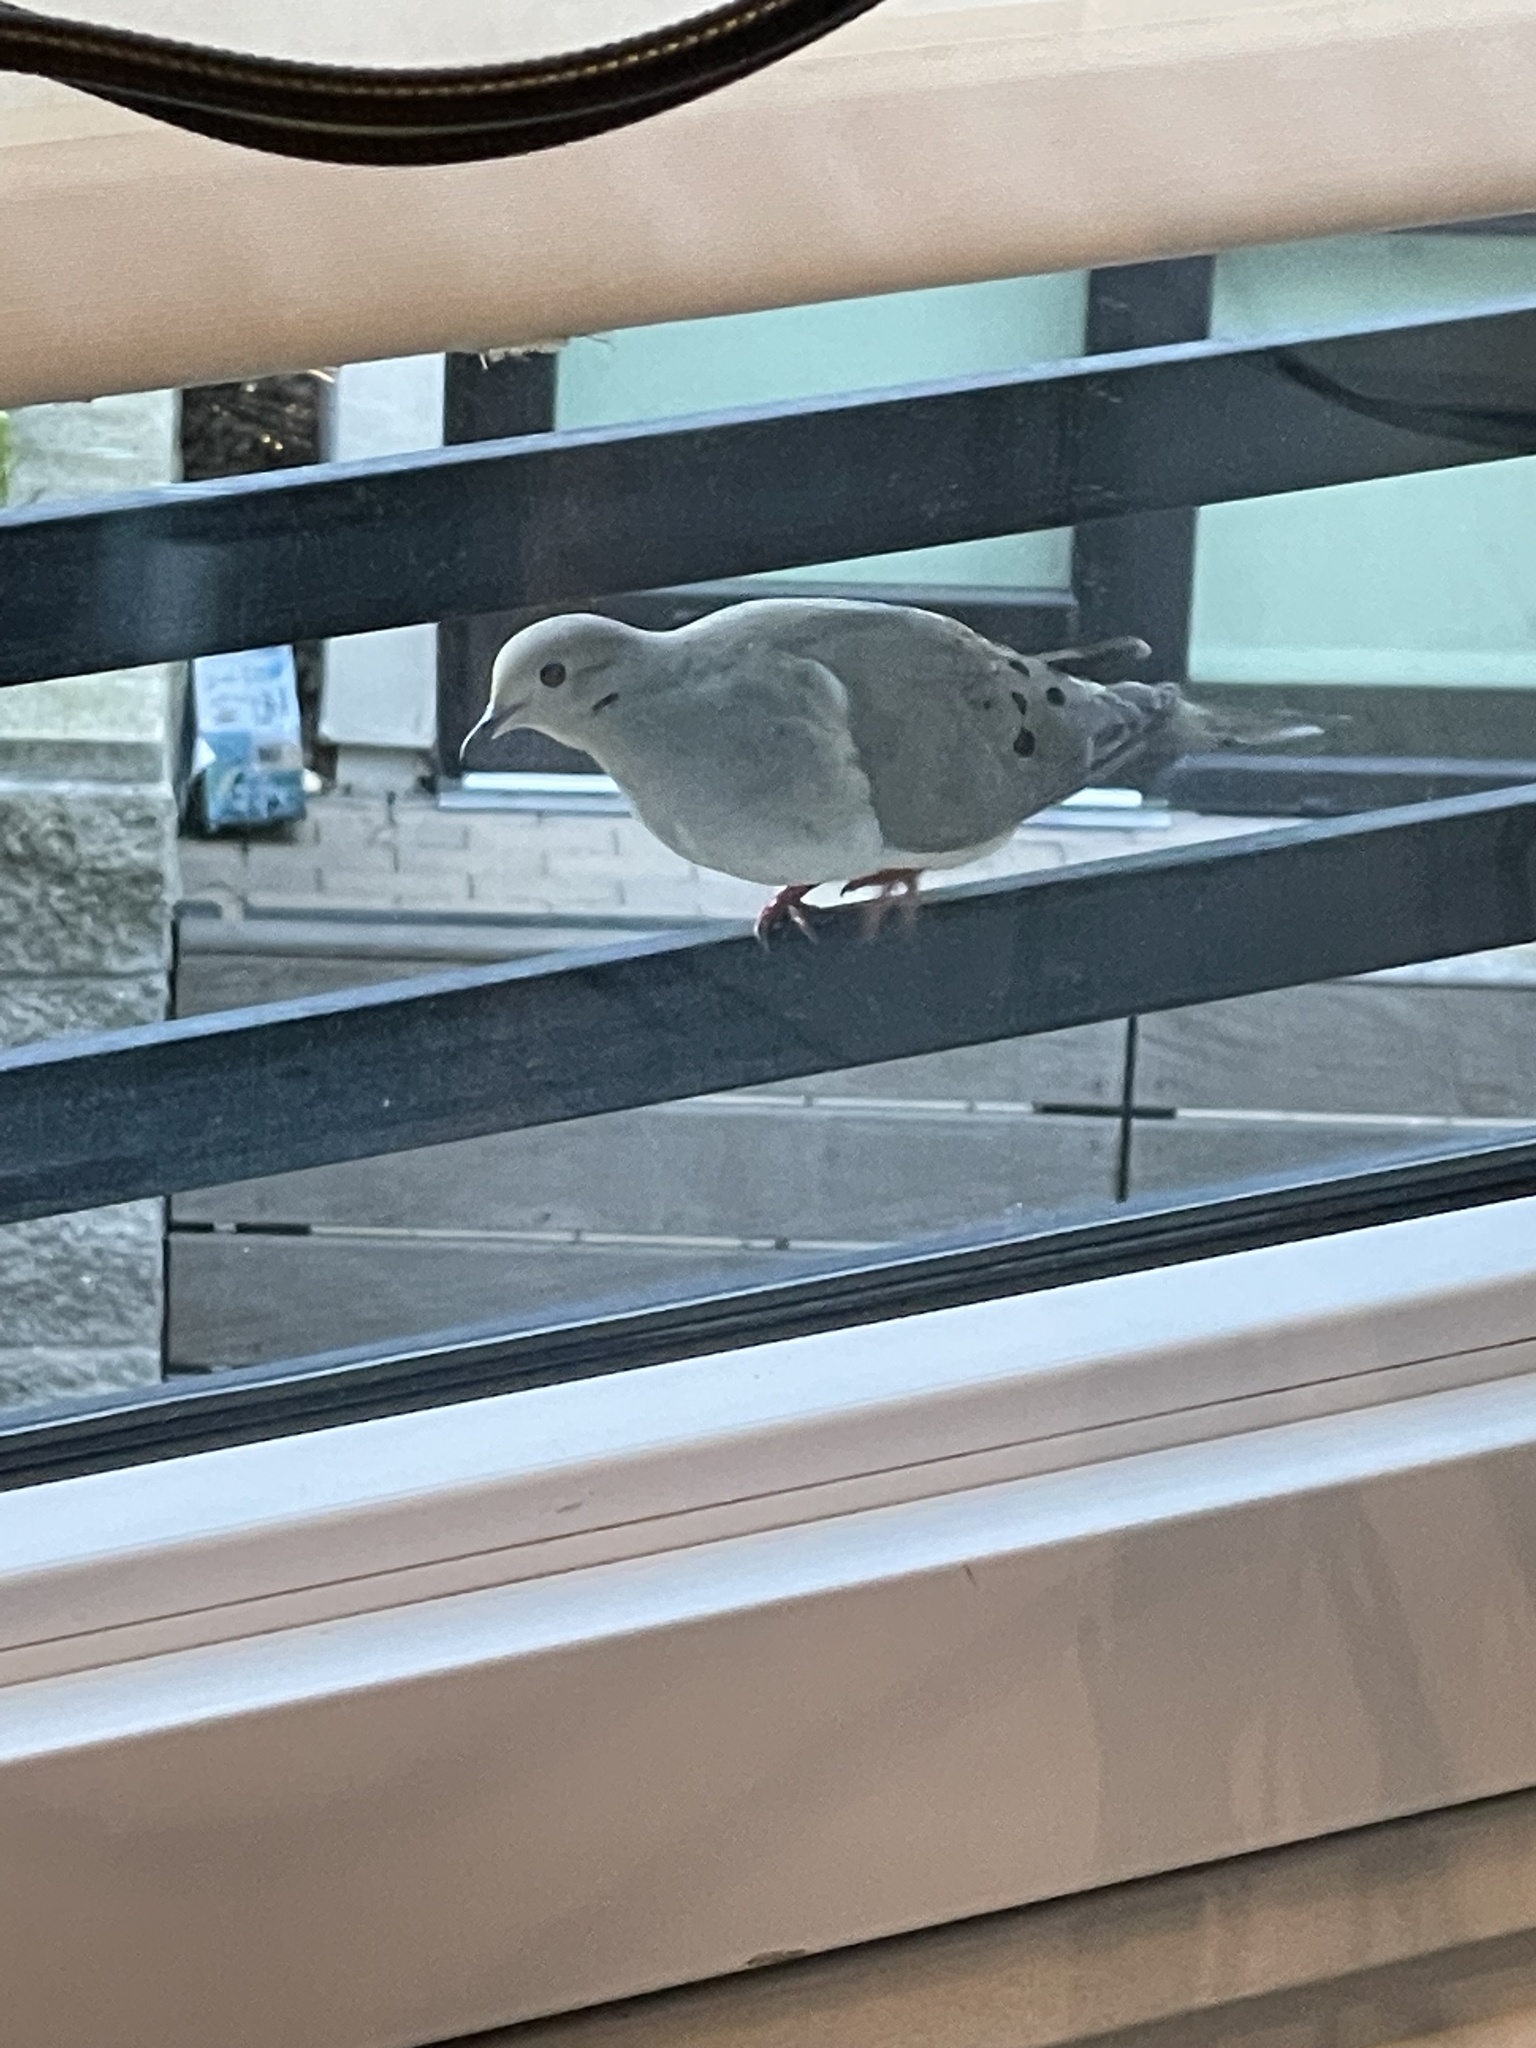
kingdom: Animalia
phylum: Chordata
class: Aves
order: Columbiformes
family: Columbidae
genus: Zenaida
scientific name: Zenaida macroura
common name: Mourning dove
